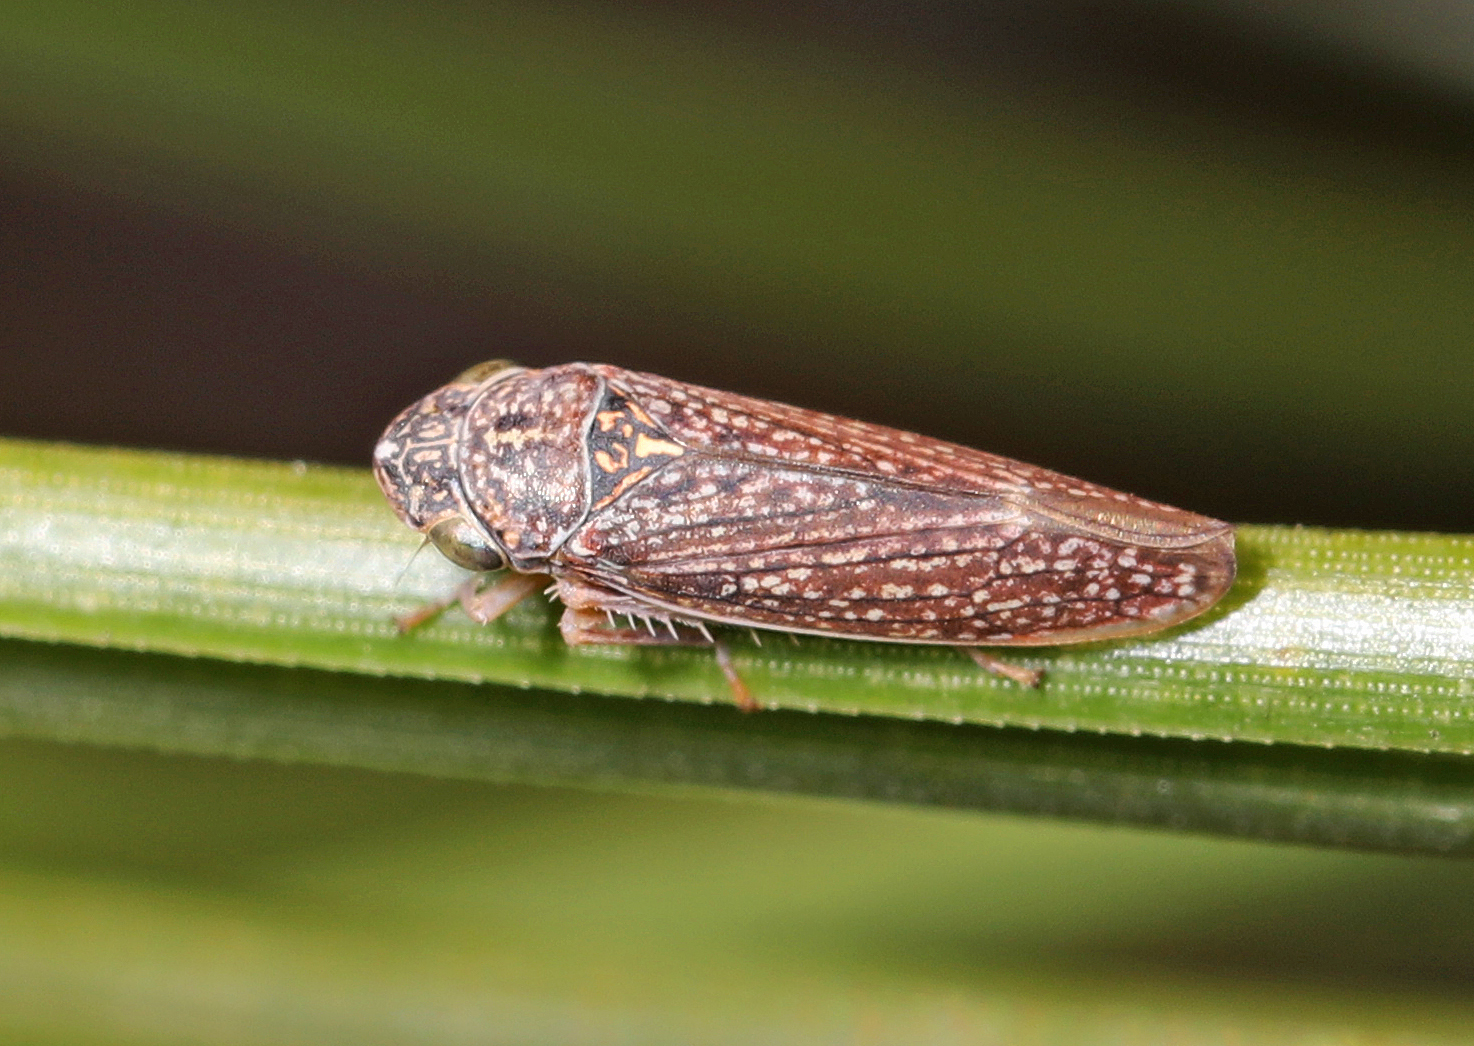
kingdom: Animalia
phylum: Arthropoda
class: Insecta
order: Hemiptera
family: Cicadellidae
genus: Graphocephala
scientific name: Graphocephala confluens
